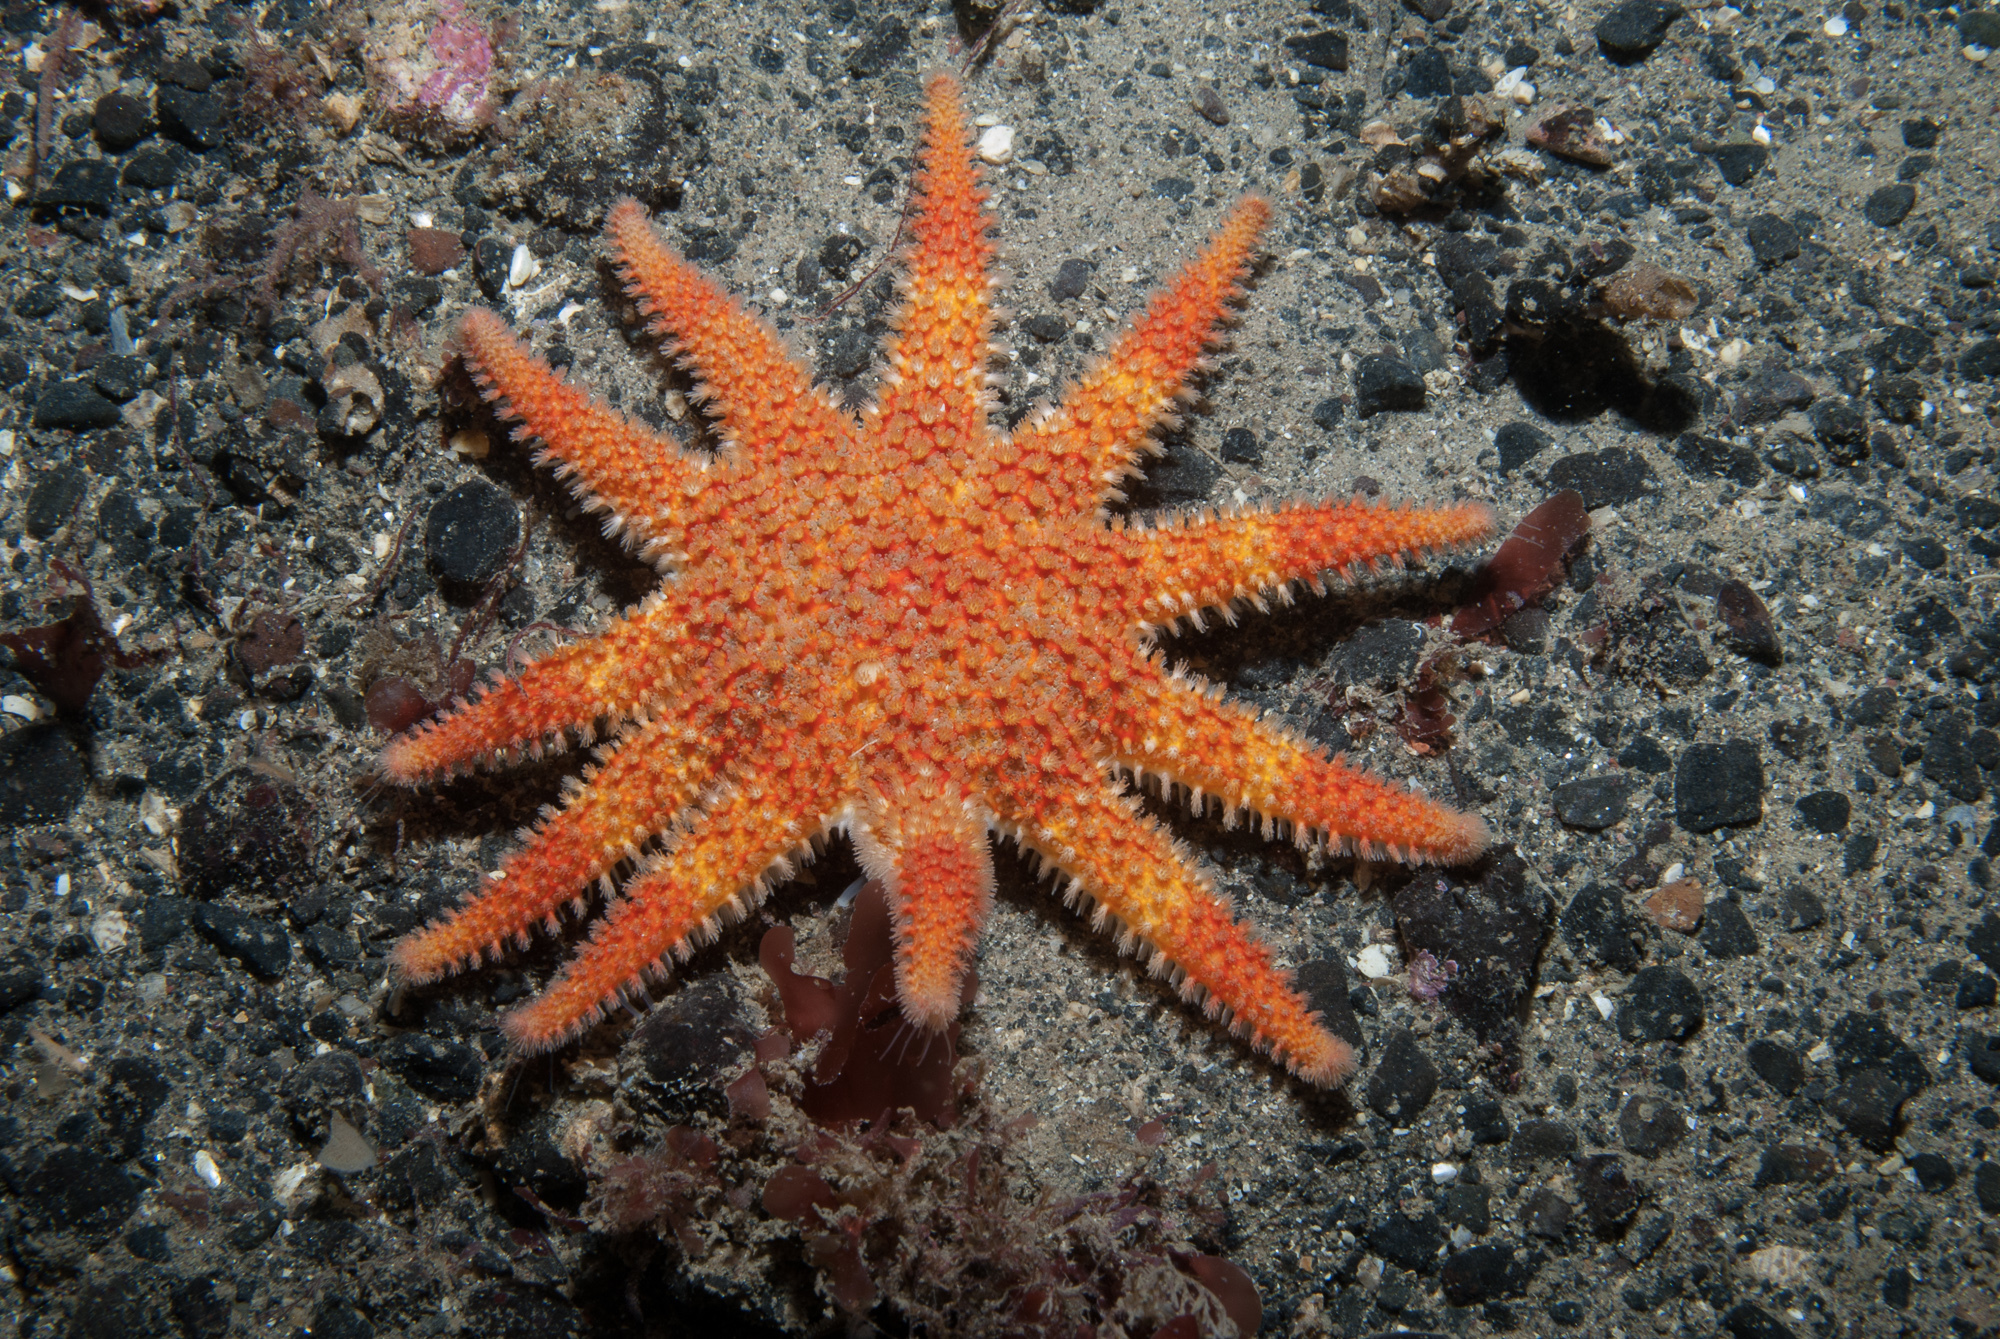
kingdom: Animalia
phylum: Echinodermata
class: Asteroidea
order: Valvatida
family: Solasteridae
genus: Crossaster
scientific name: Crossaster papposus
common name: Common sun star
